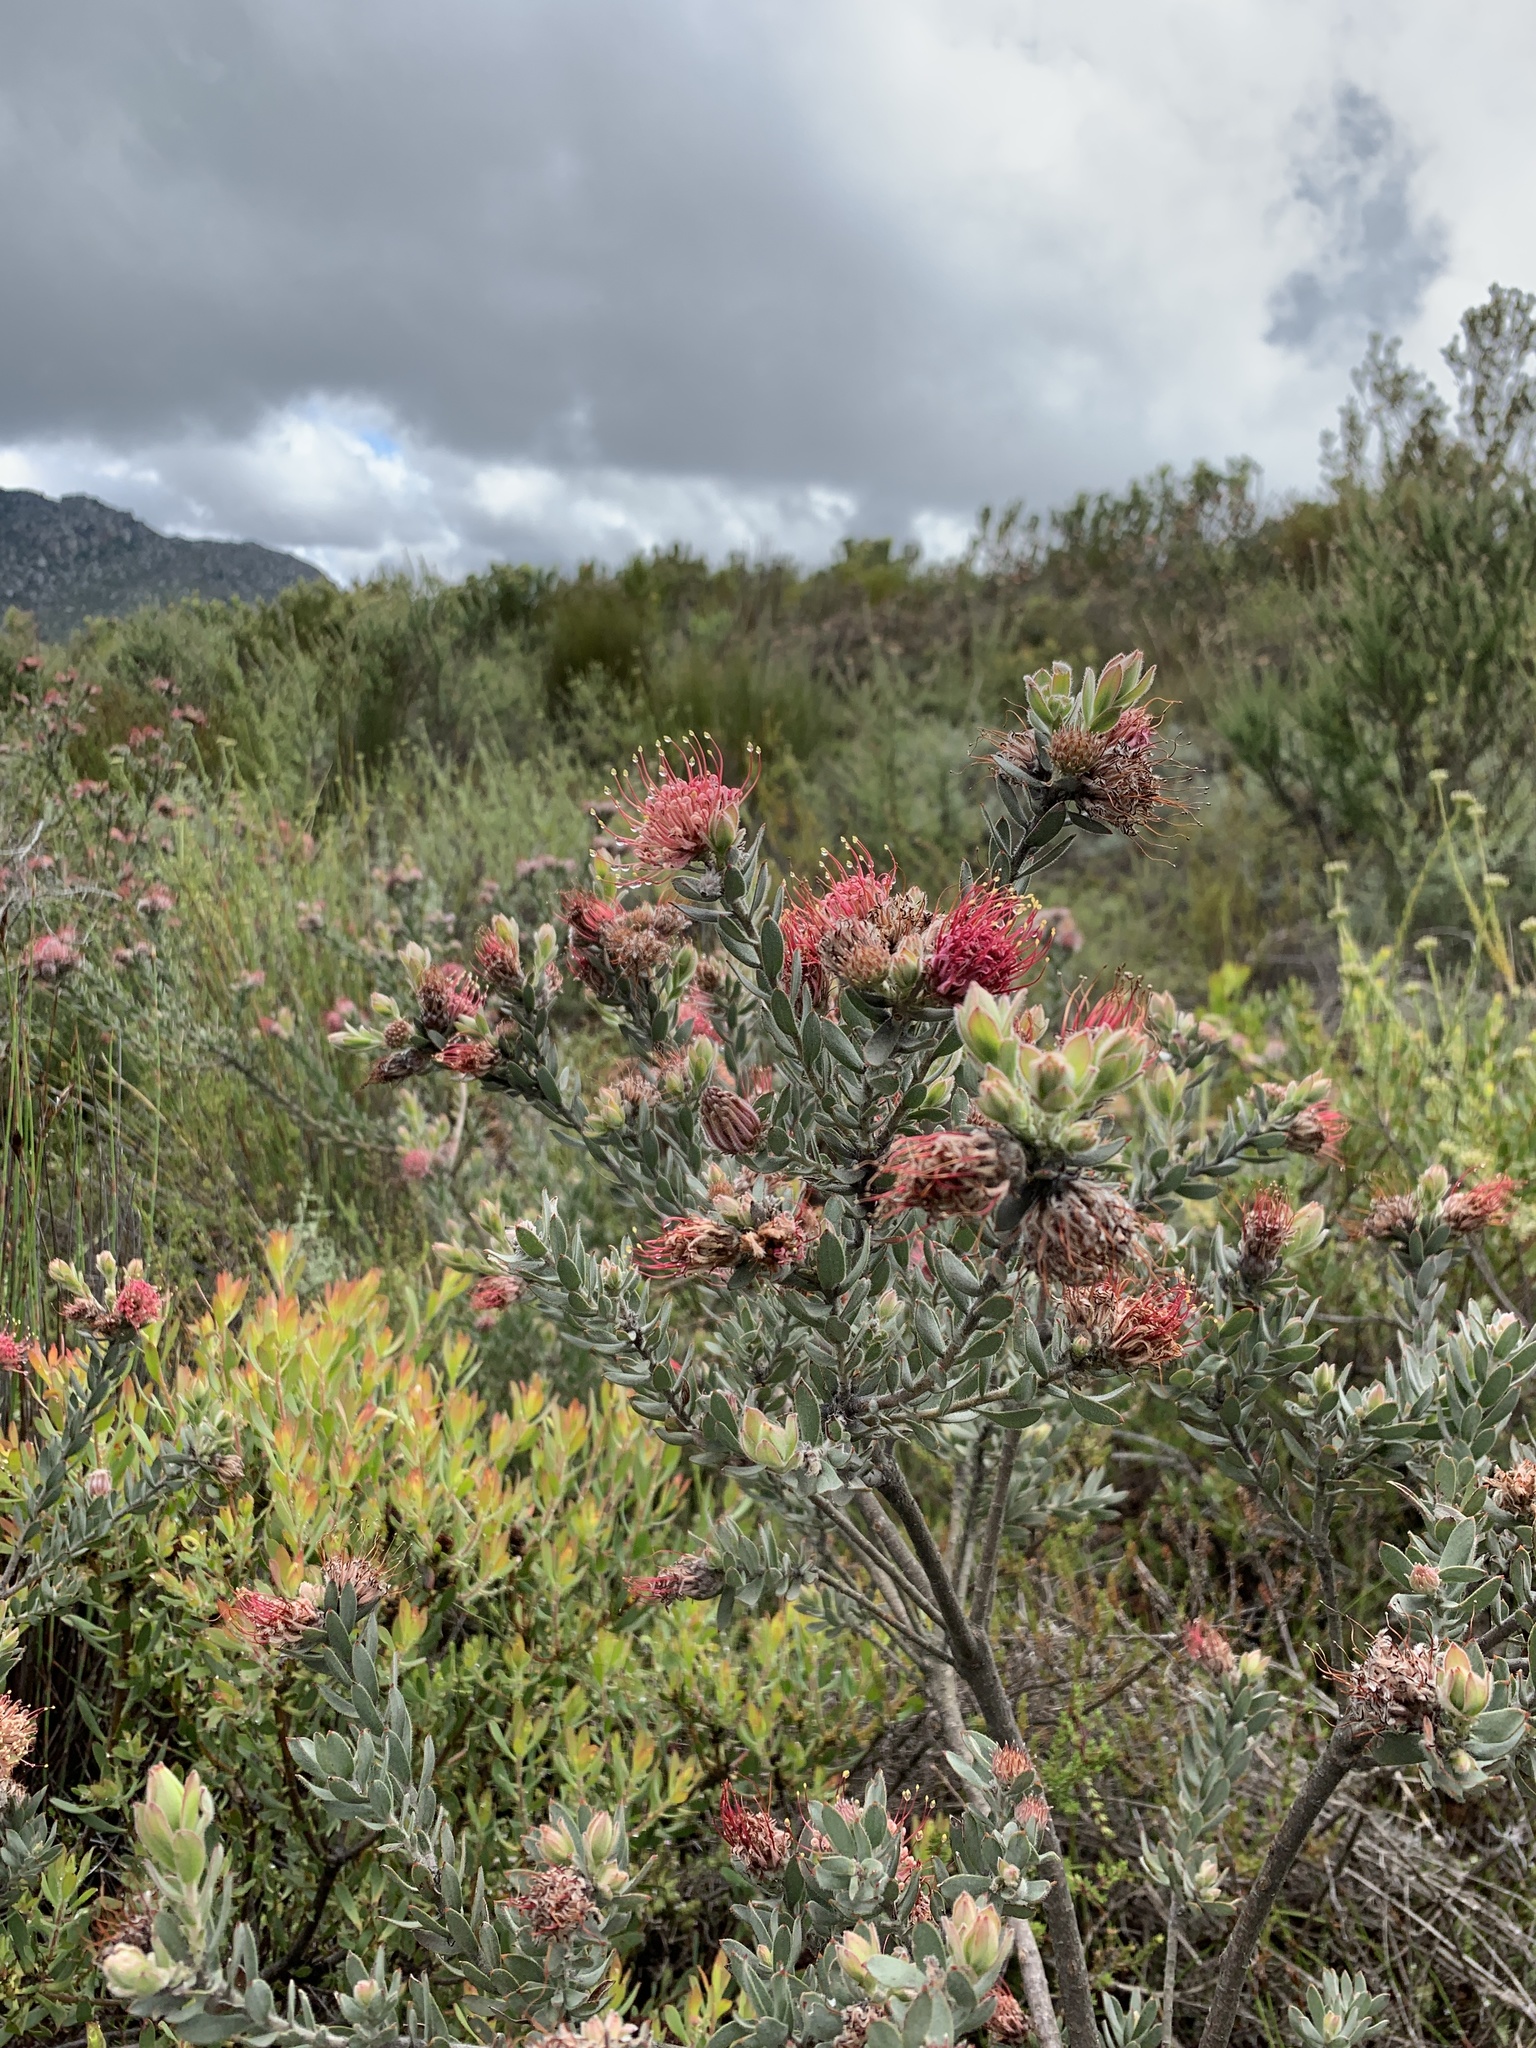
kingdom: Plantae
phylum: Tracheophyta
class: Magnoliopsida
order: Proteales
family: Proteaceae
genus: Leucospermum
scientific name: Leucospermum calligerum
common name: Arid pincushion
